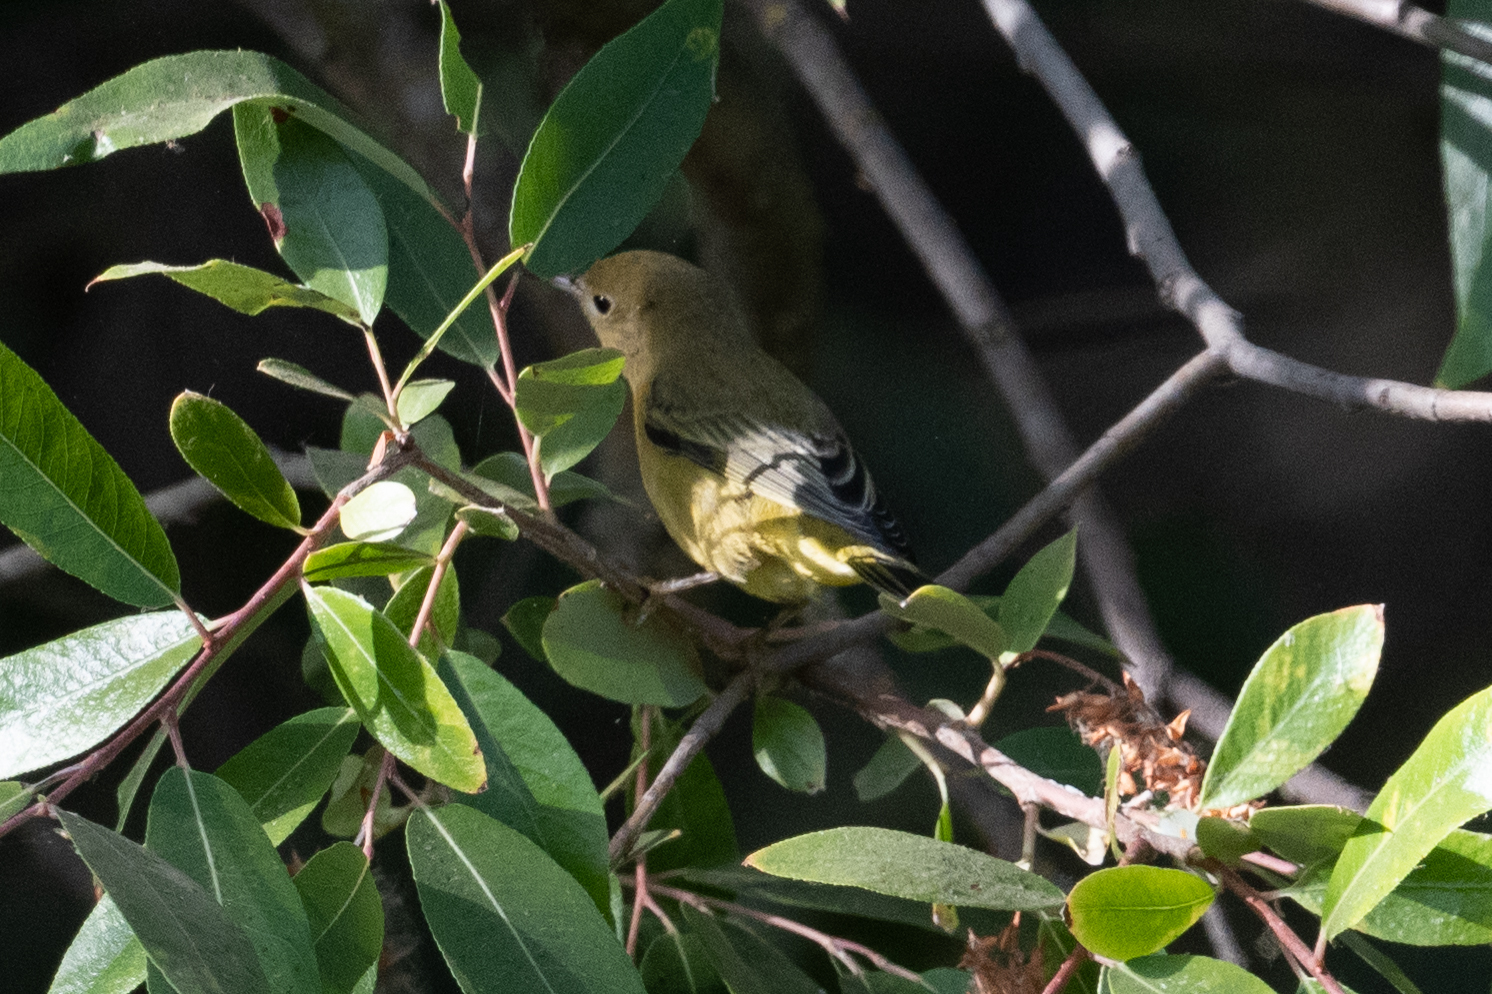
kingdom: Animalia
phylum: Chordata
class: Aves
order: Passeriformes
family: Parulidae
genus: Setophaga
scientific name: Setophaga petechia
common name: Yellow warbler
